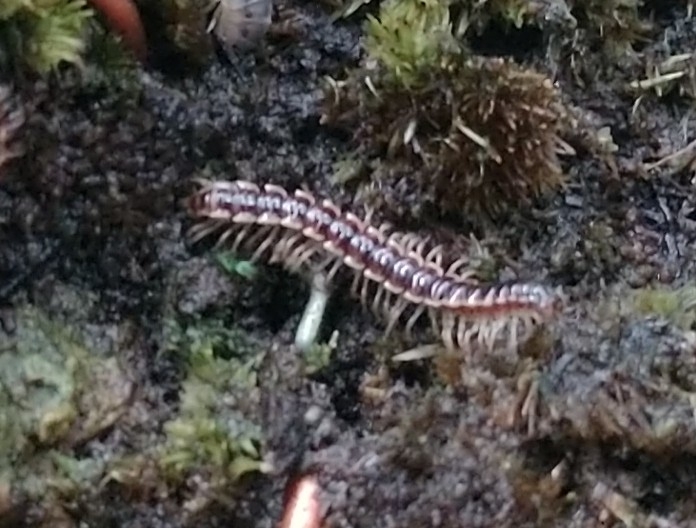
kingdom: Animalia
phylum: Arthropoda
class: Diplopoda
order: Polydesmida
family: Paradoxosomatidae
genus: Oxidus
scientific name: Oxidus gracilis
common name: Greenhouse millipede
